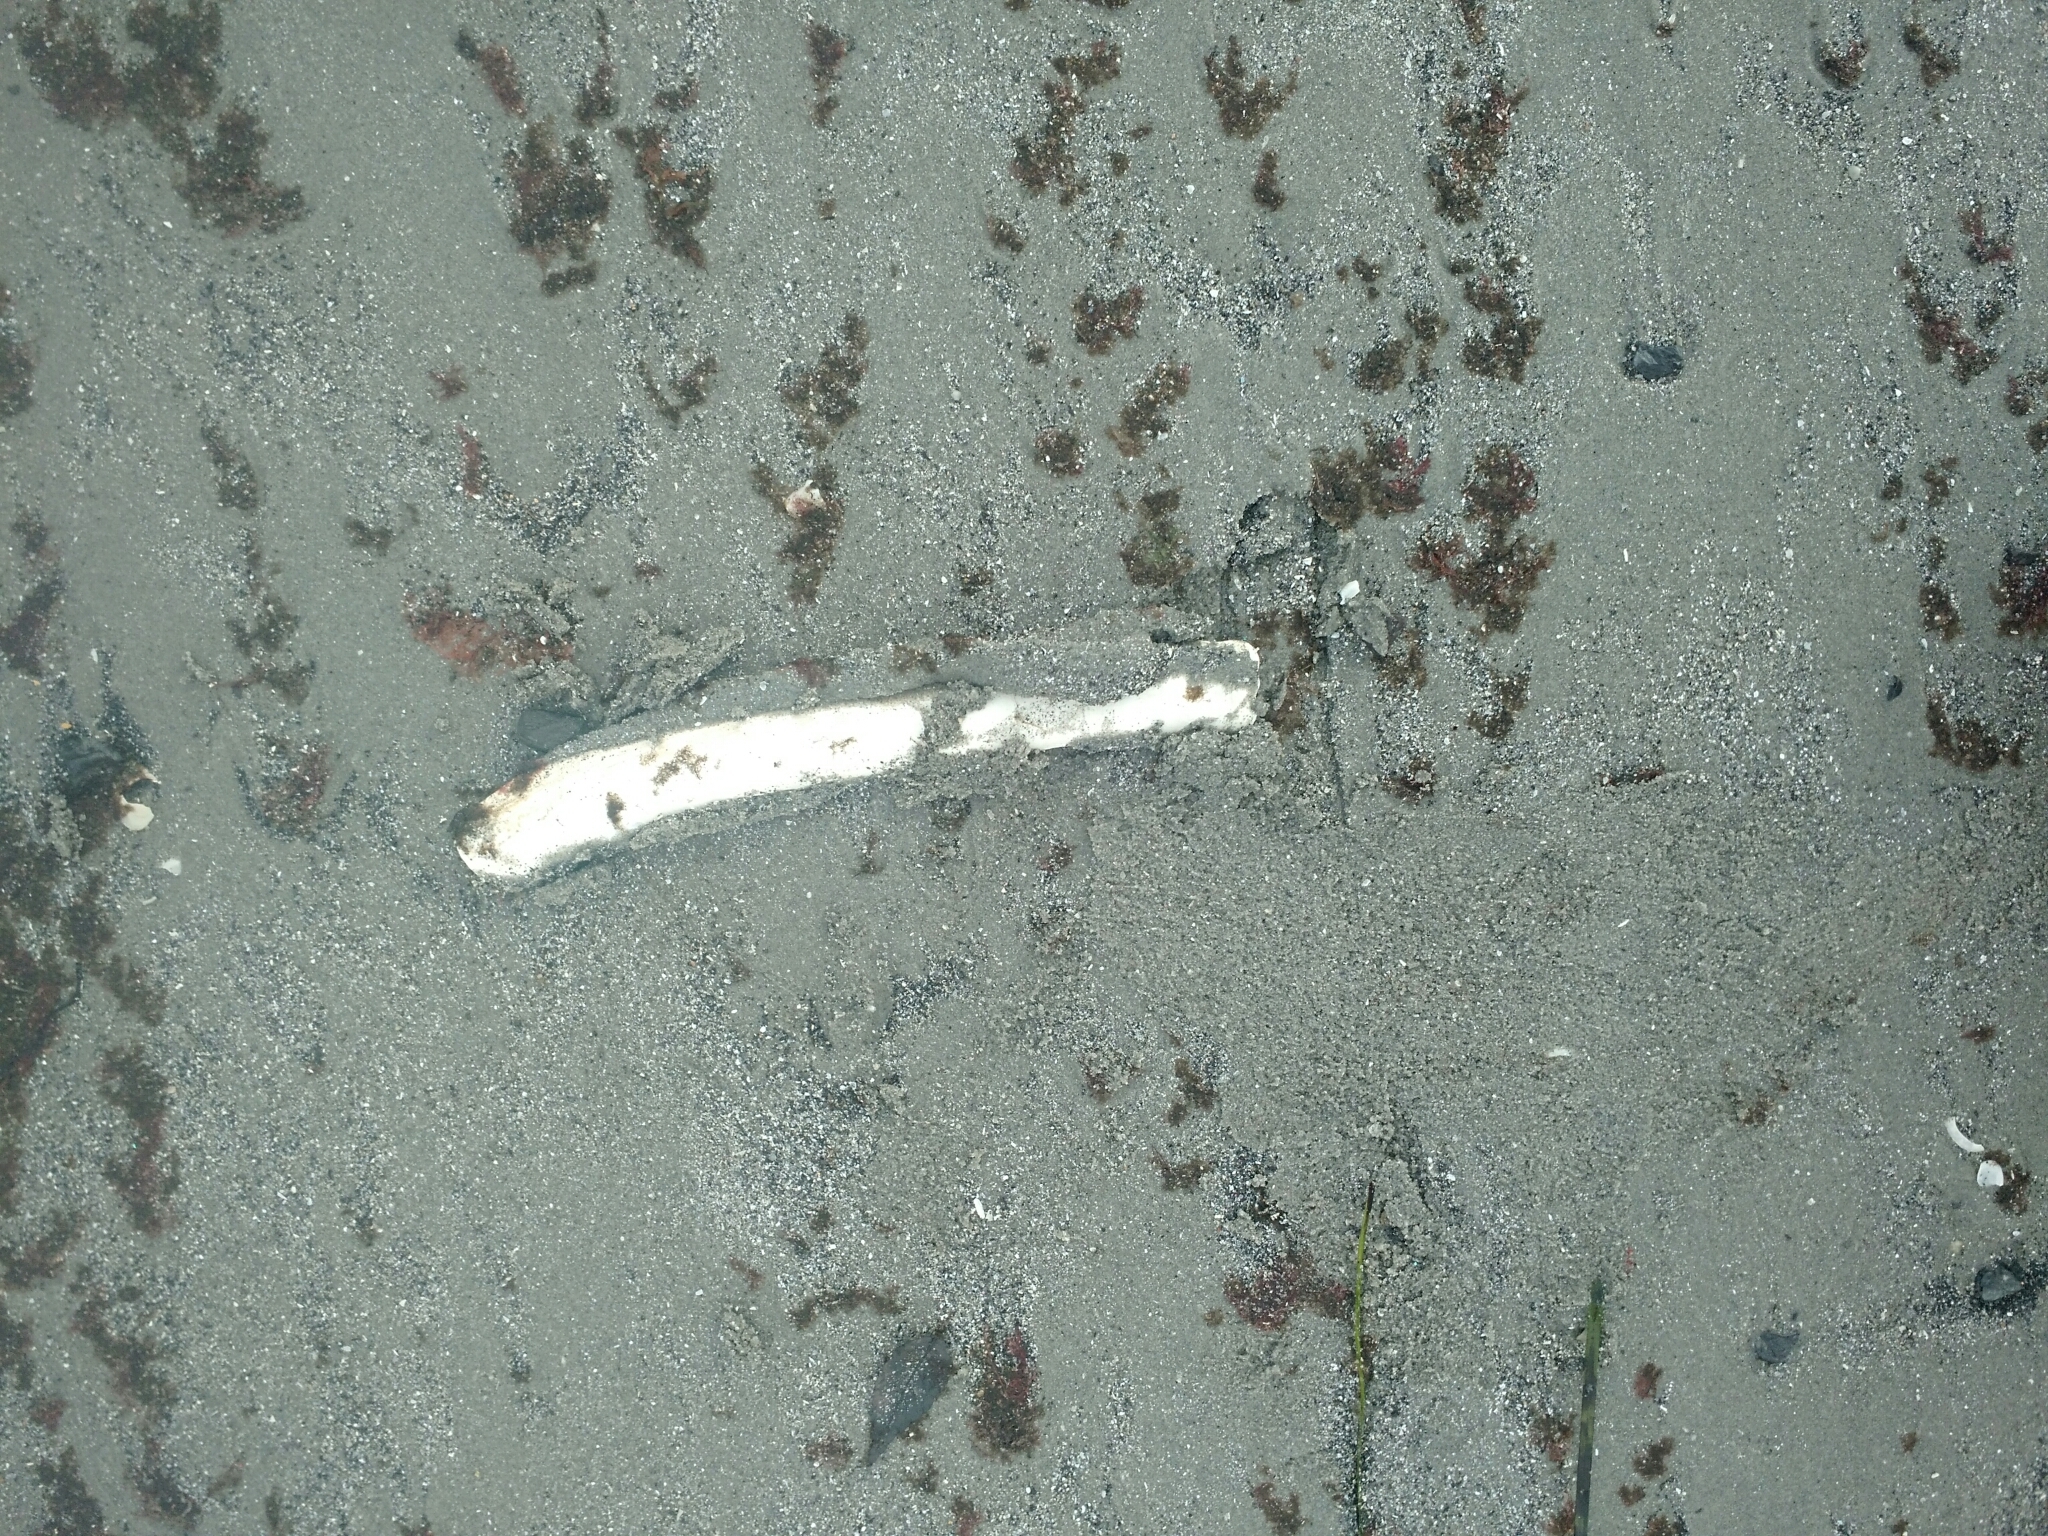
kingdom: Animalia
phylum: Mollusca
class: Bivalvia
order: Adapedonta
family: Pharidae
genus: Ensis
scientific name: Ensis leei
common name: American jack knife clam
